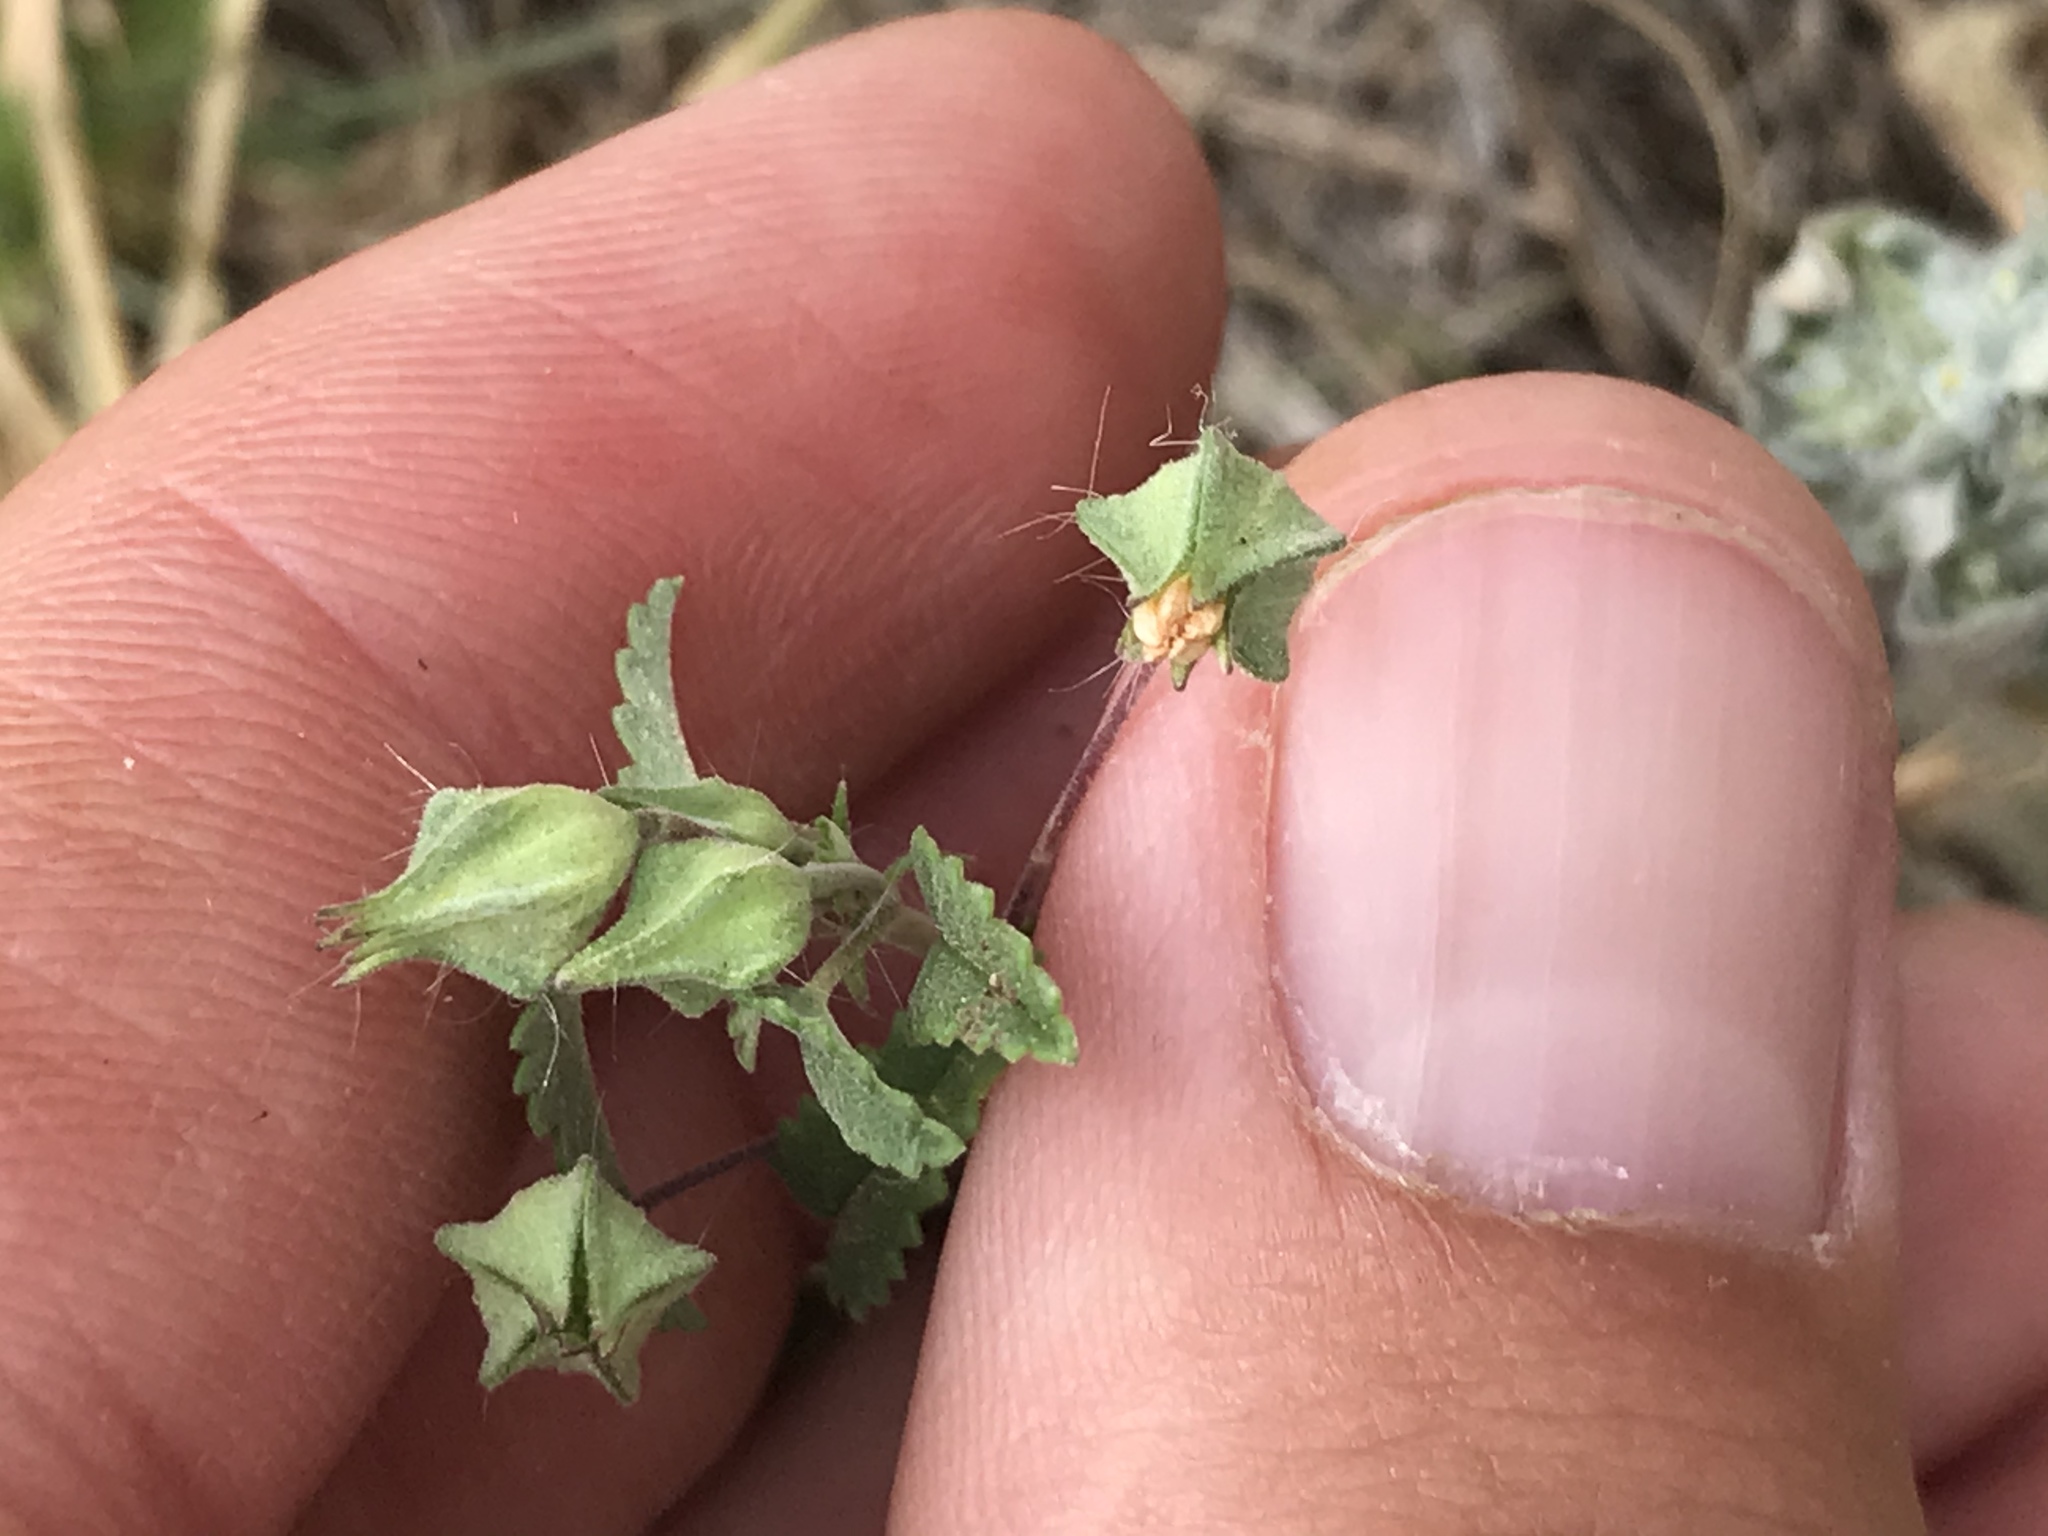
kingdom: Plantae
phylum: Tracheophyta
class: Magnoliopsida
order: Malvales
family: Malvaceae
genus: Sida
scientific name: Sida abutilifolia
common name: Spreading fanpetals
